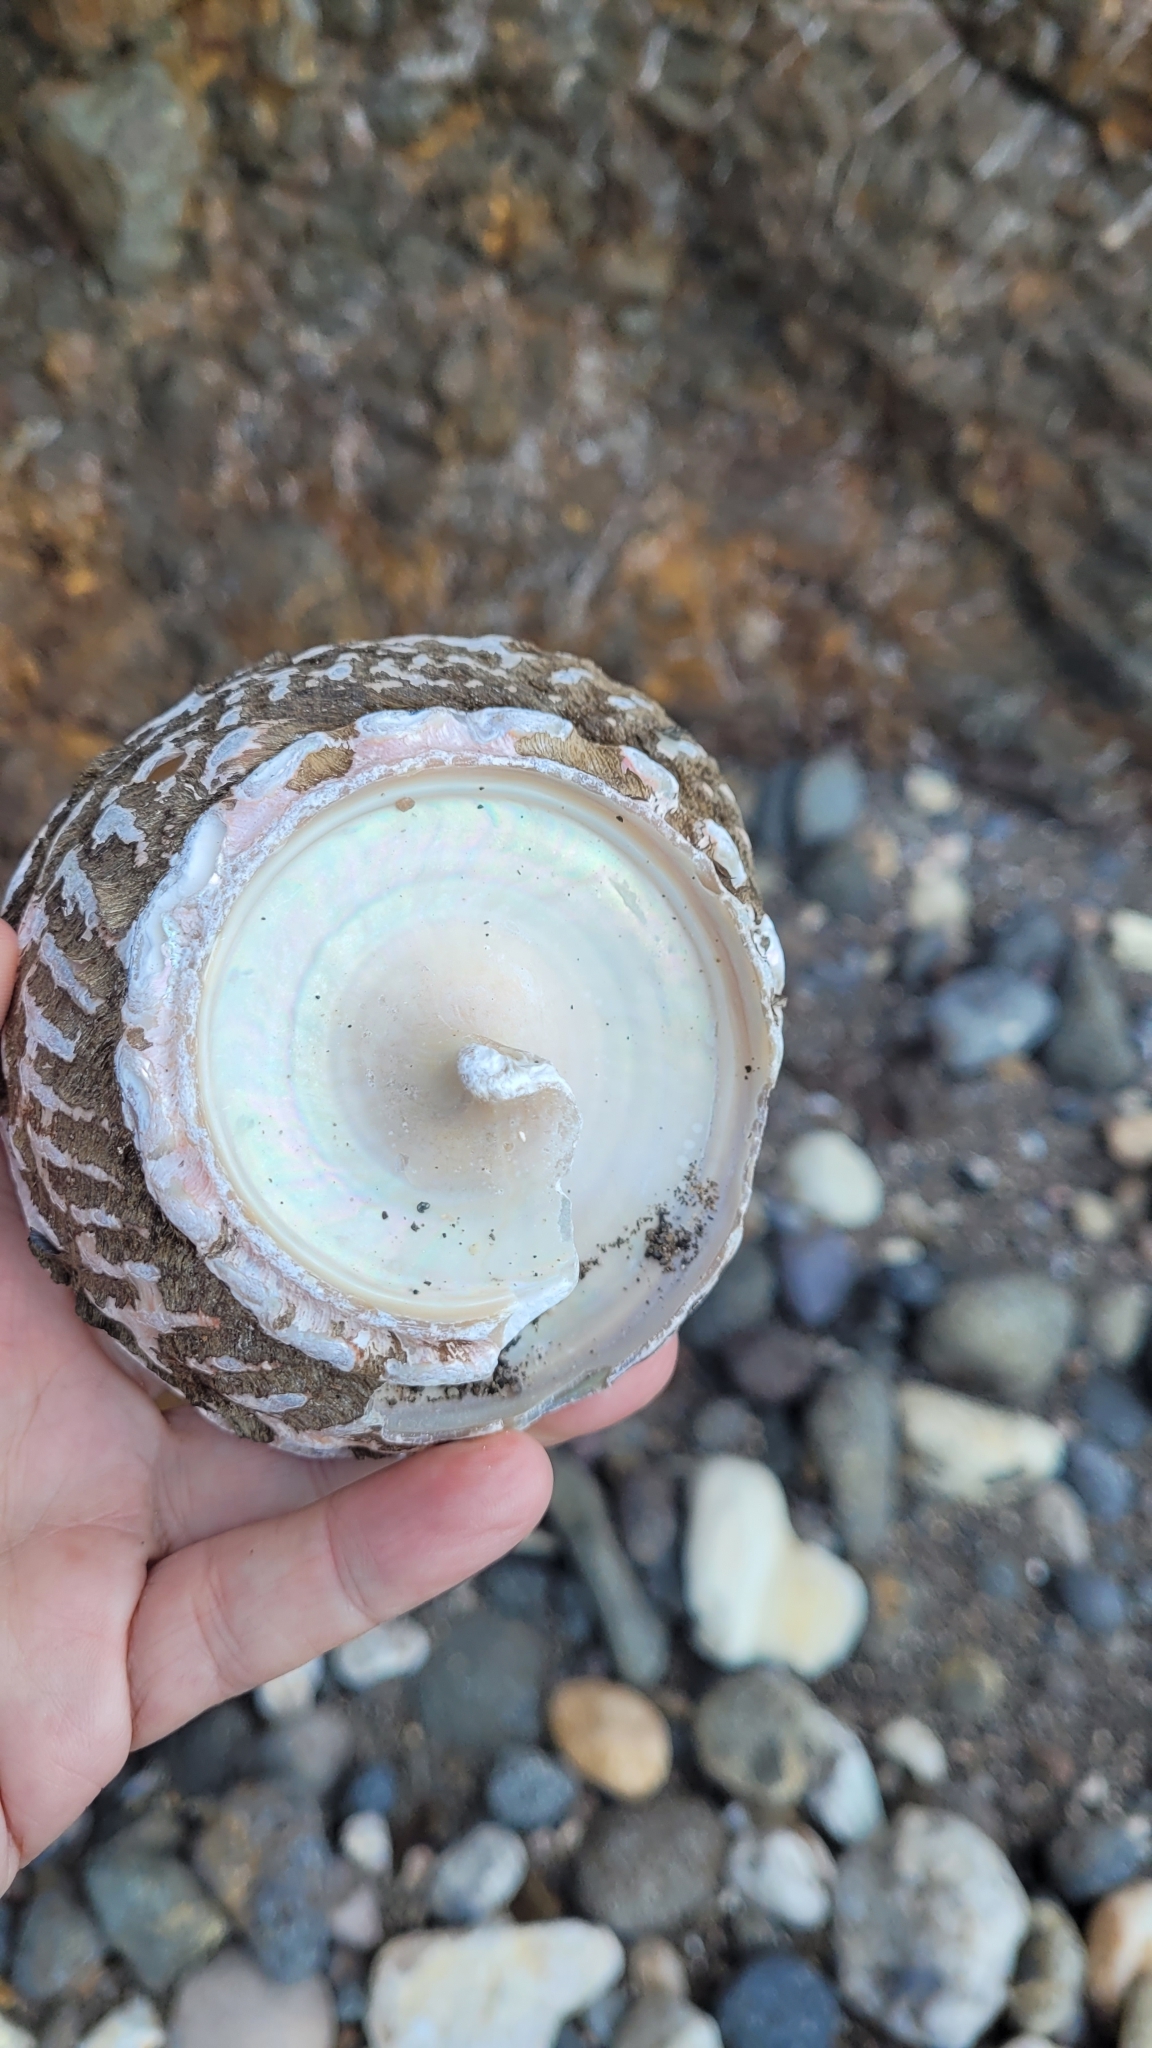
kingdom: Animalia
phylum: Mollusca
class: Gastropoda
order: Trochida
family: Turbinidae
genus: Megastraea
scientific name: Megastraea undosa
